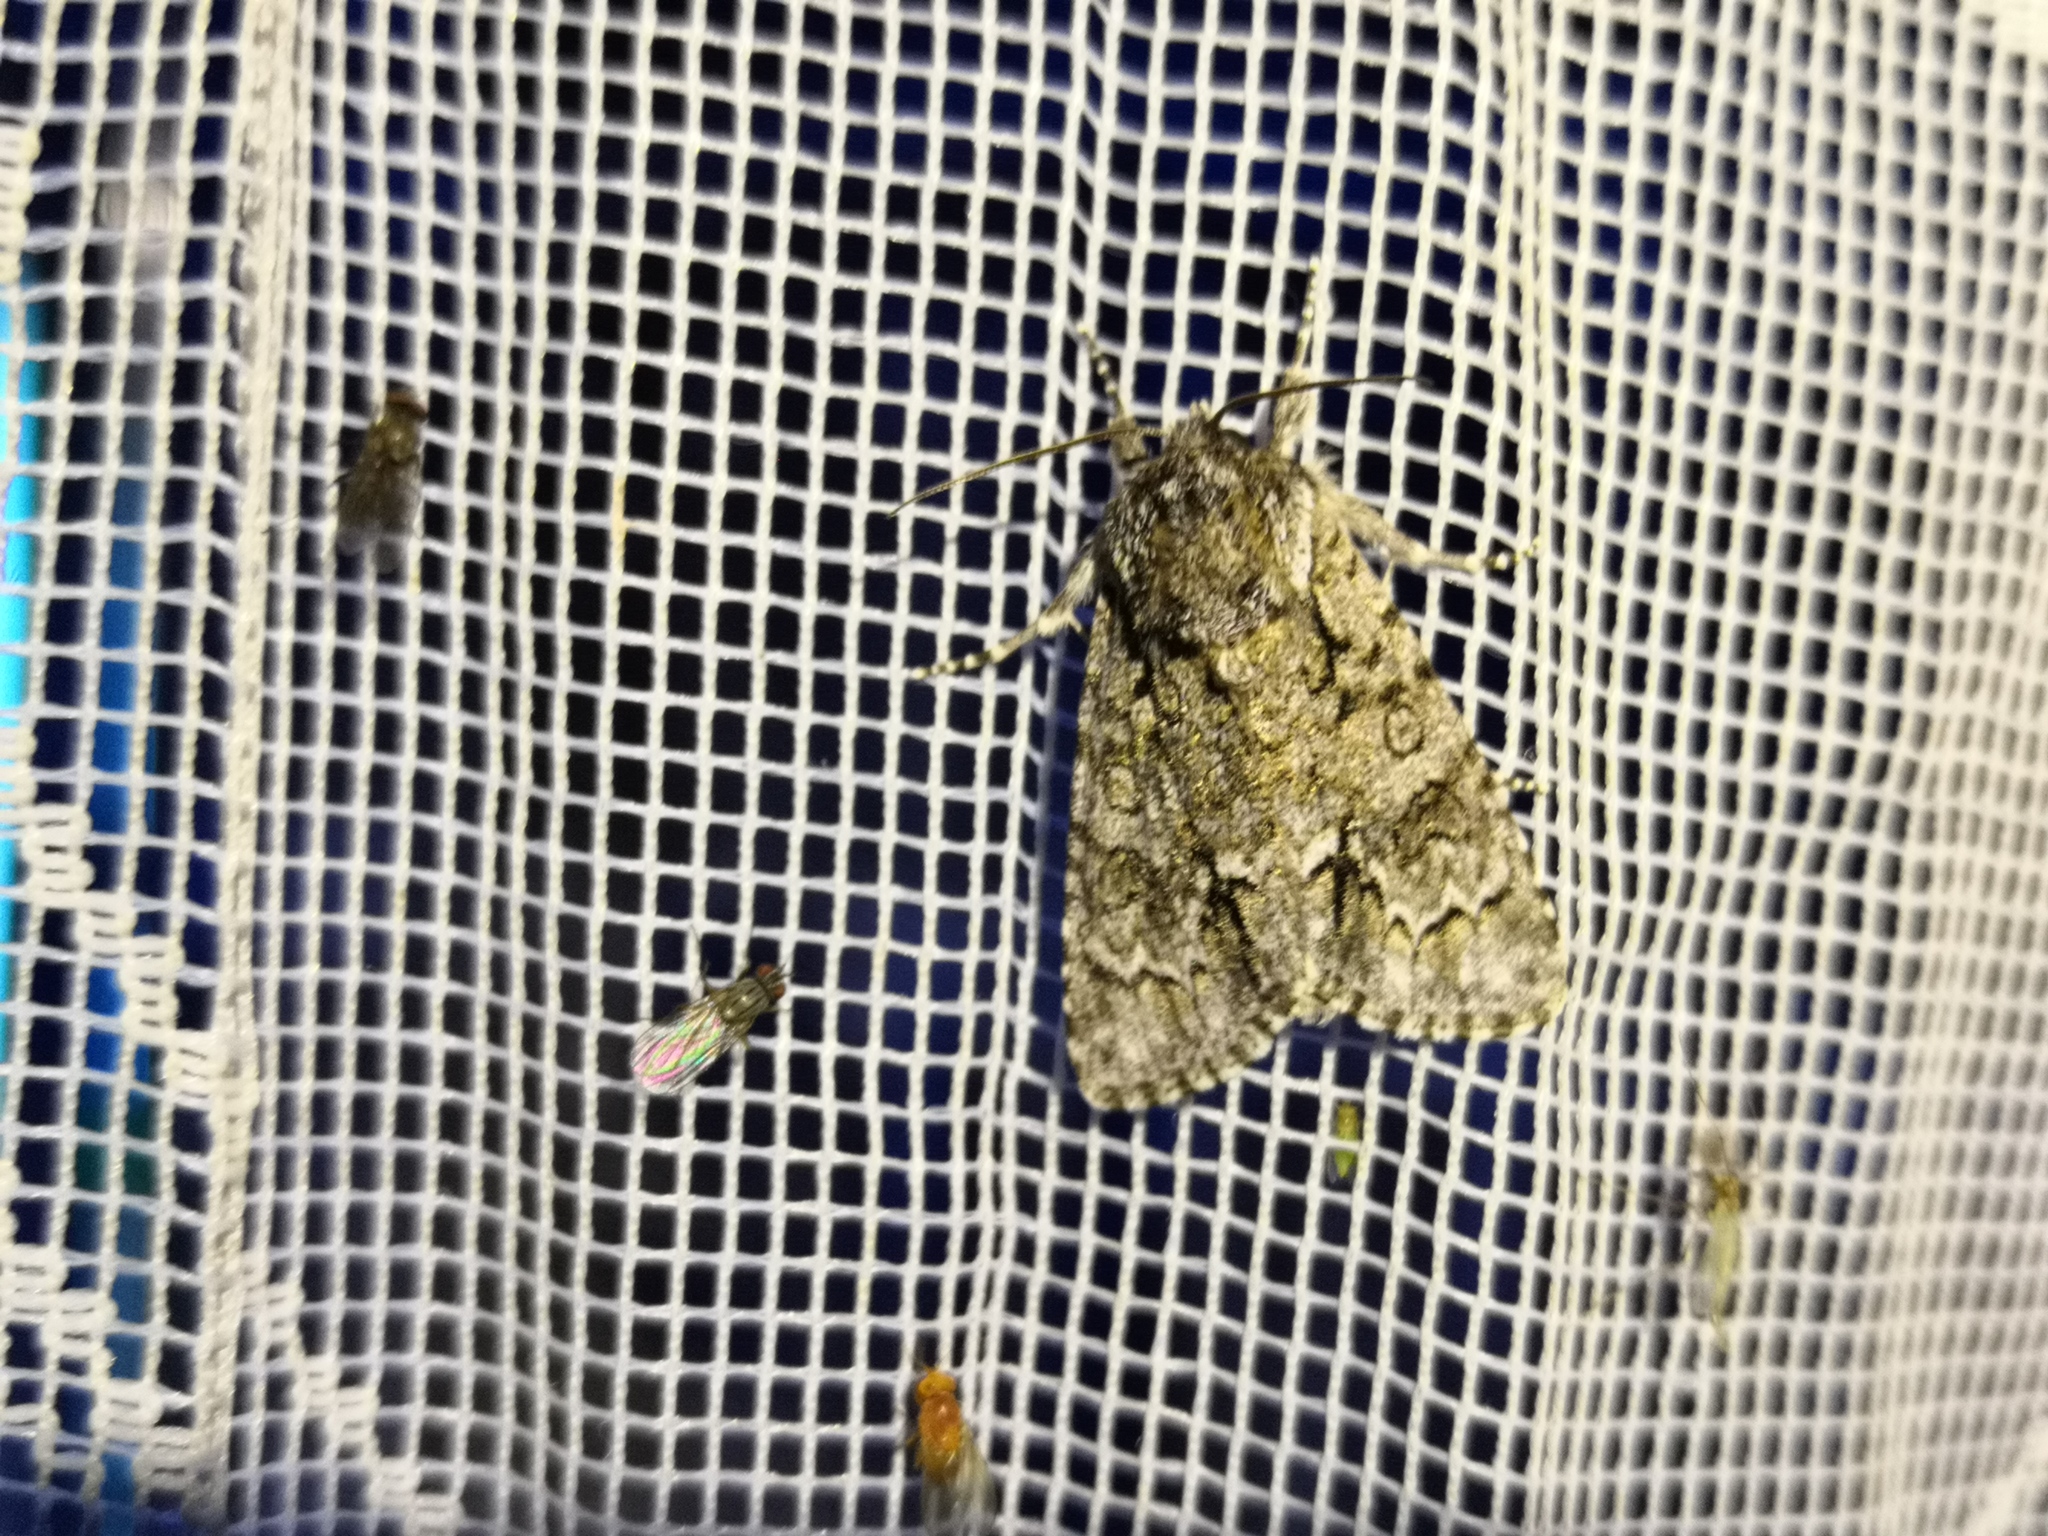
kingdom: Animalia
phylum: Arthropoda
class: Insecta
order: Lepidoptera
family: Noctuidae
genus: Acronicta
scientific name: Acronicta auricoma
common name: Scarce dagger
